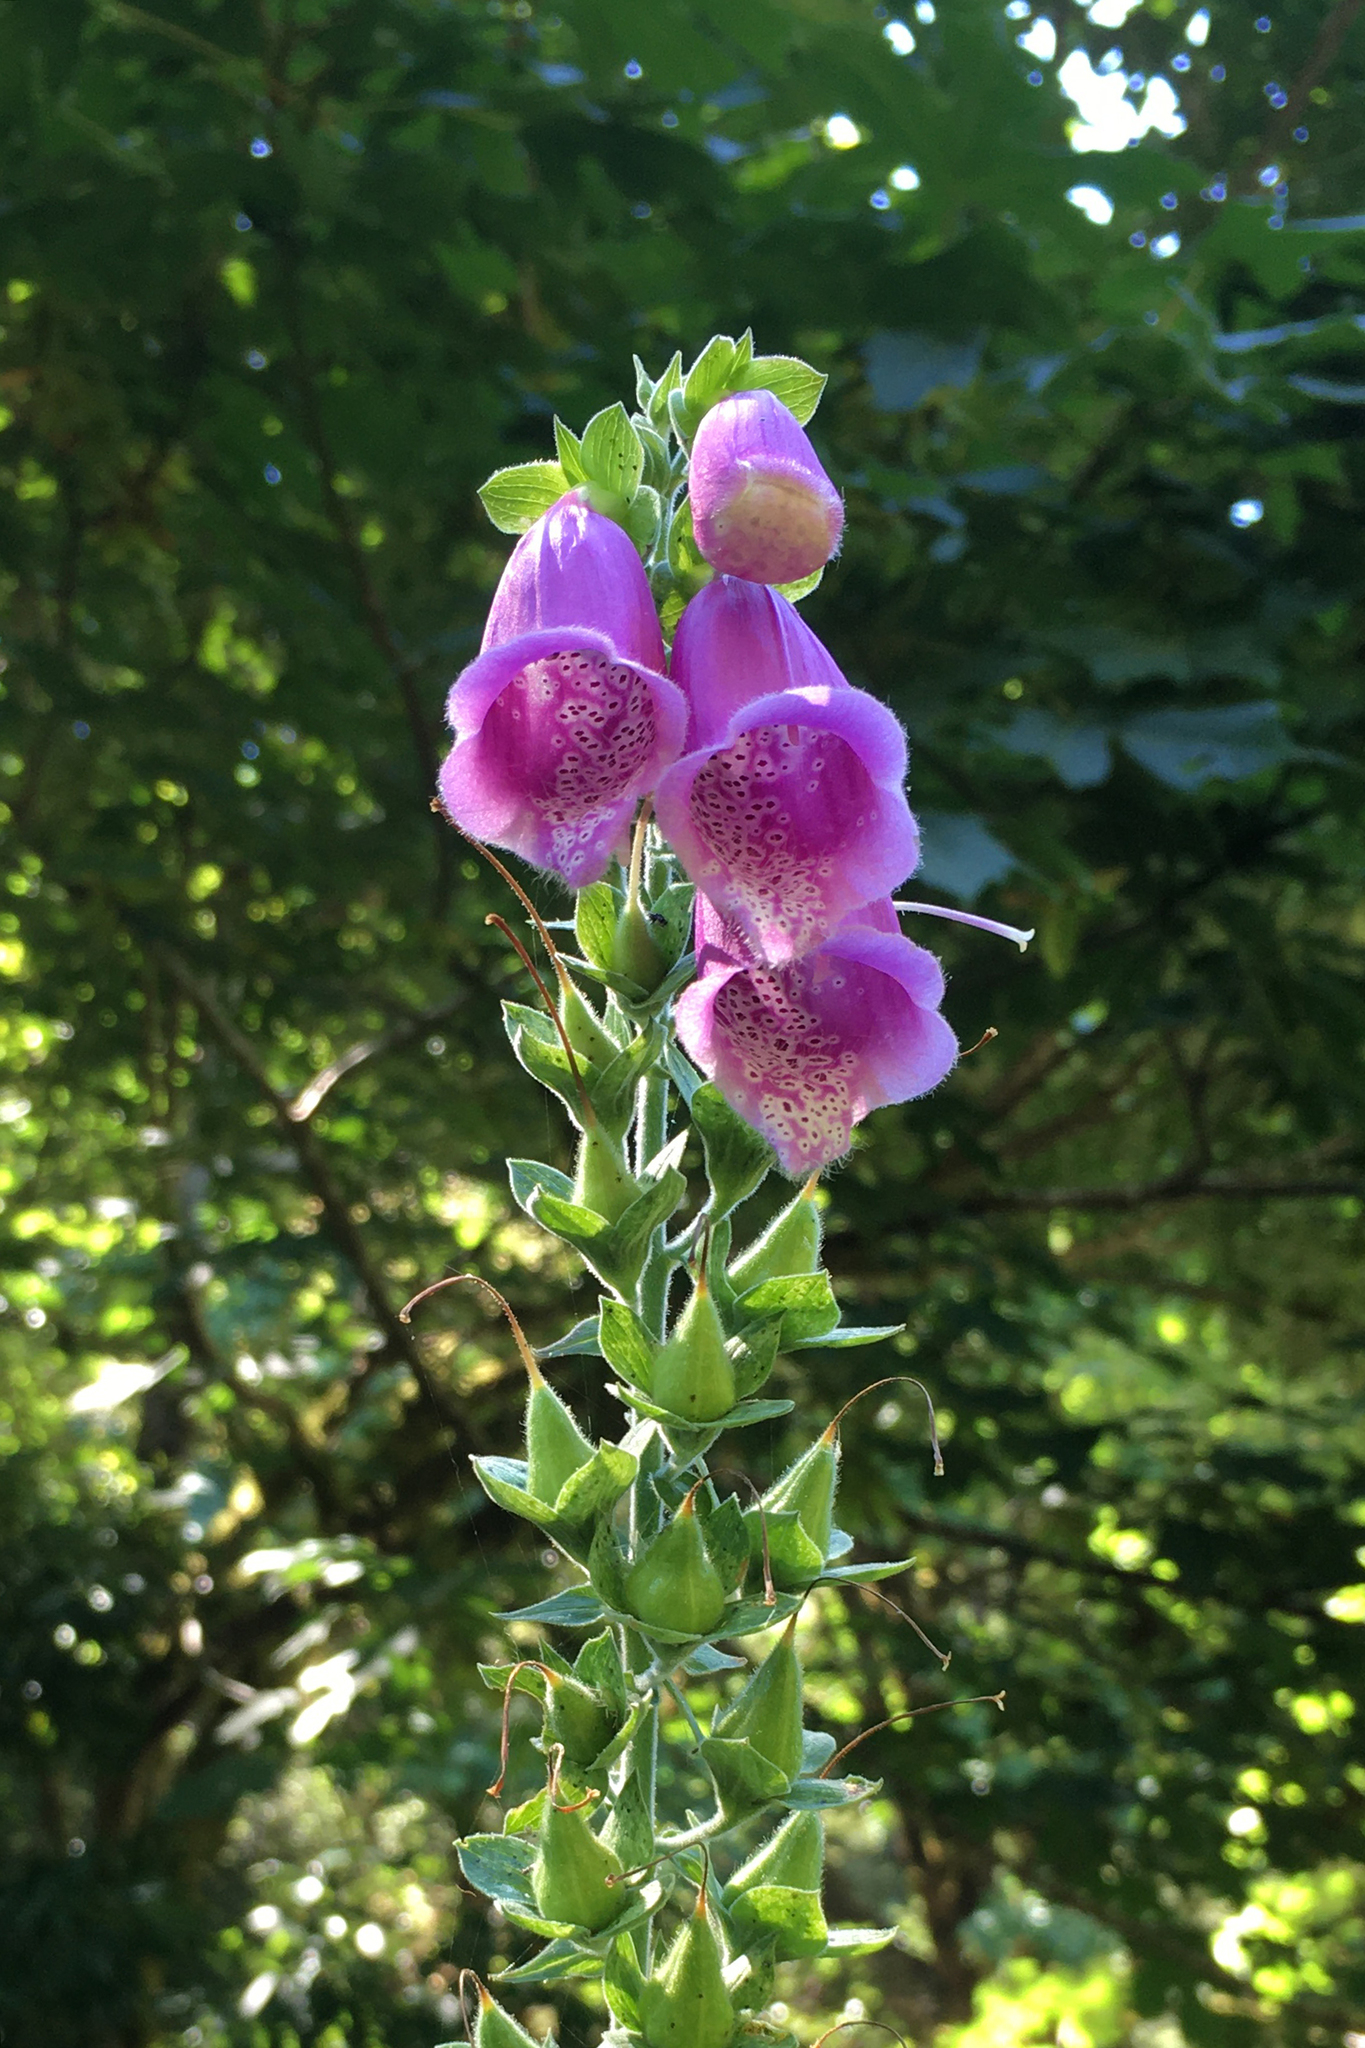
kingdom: Plantae
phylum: Tracheophyta
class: Magnoliopsida
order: Lamiales
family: Plantaginaceae
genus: Digitalis
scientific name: Digitalis purpurea
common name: Foxglove
